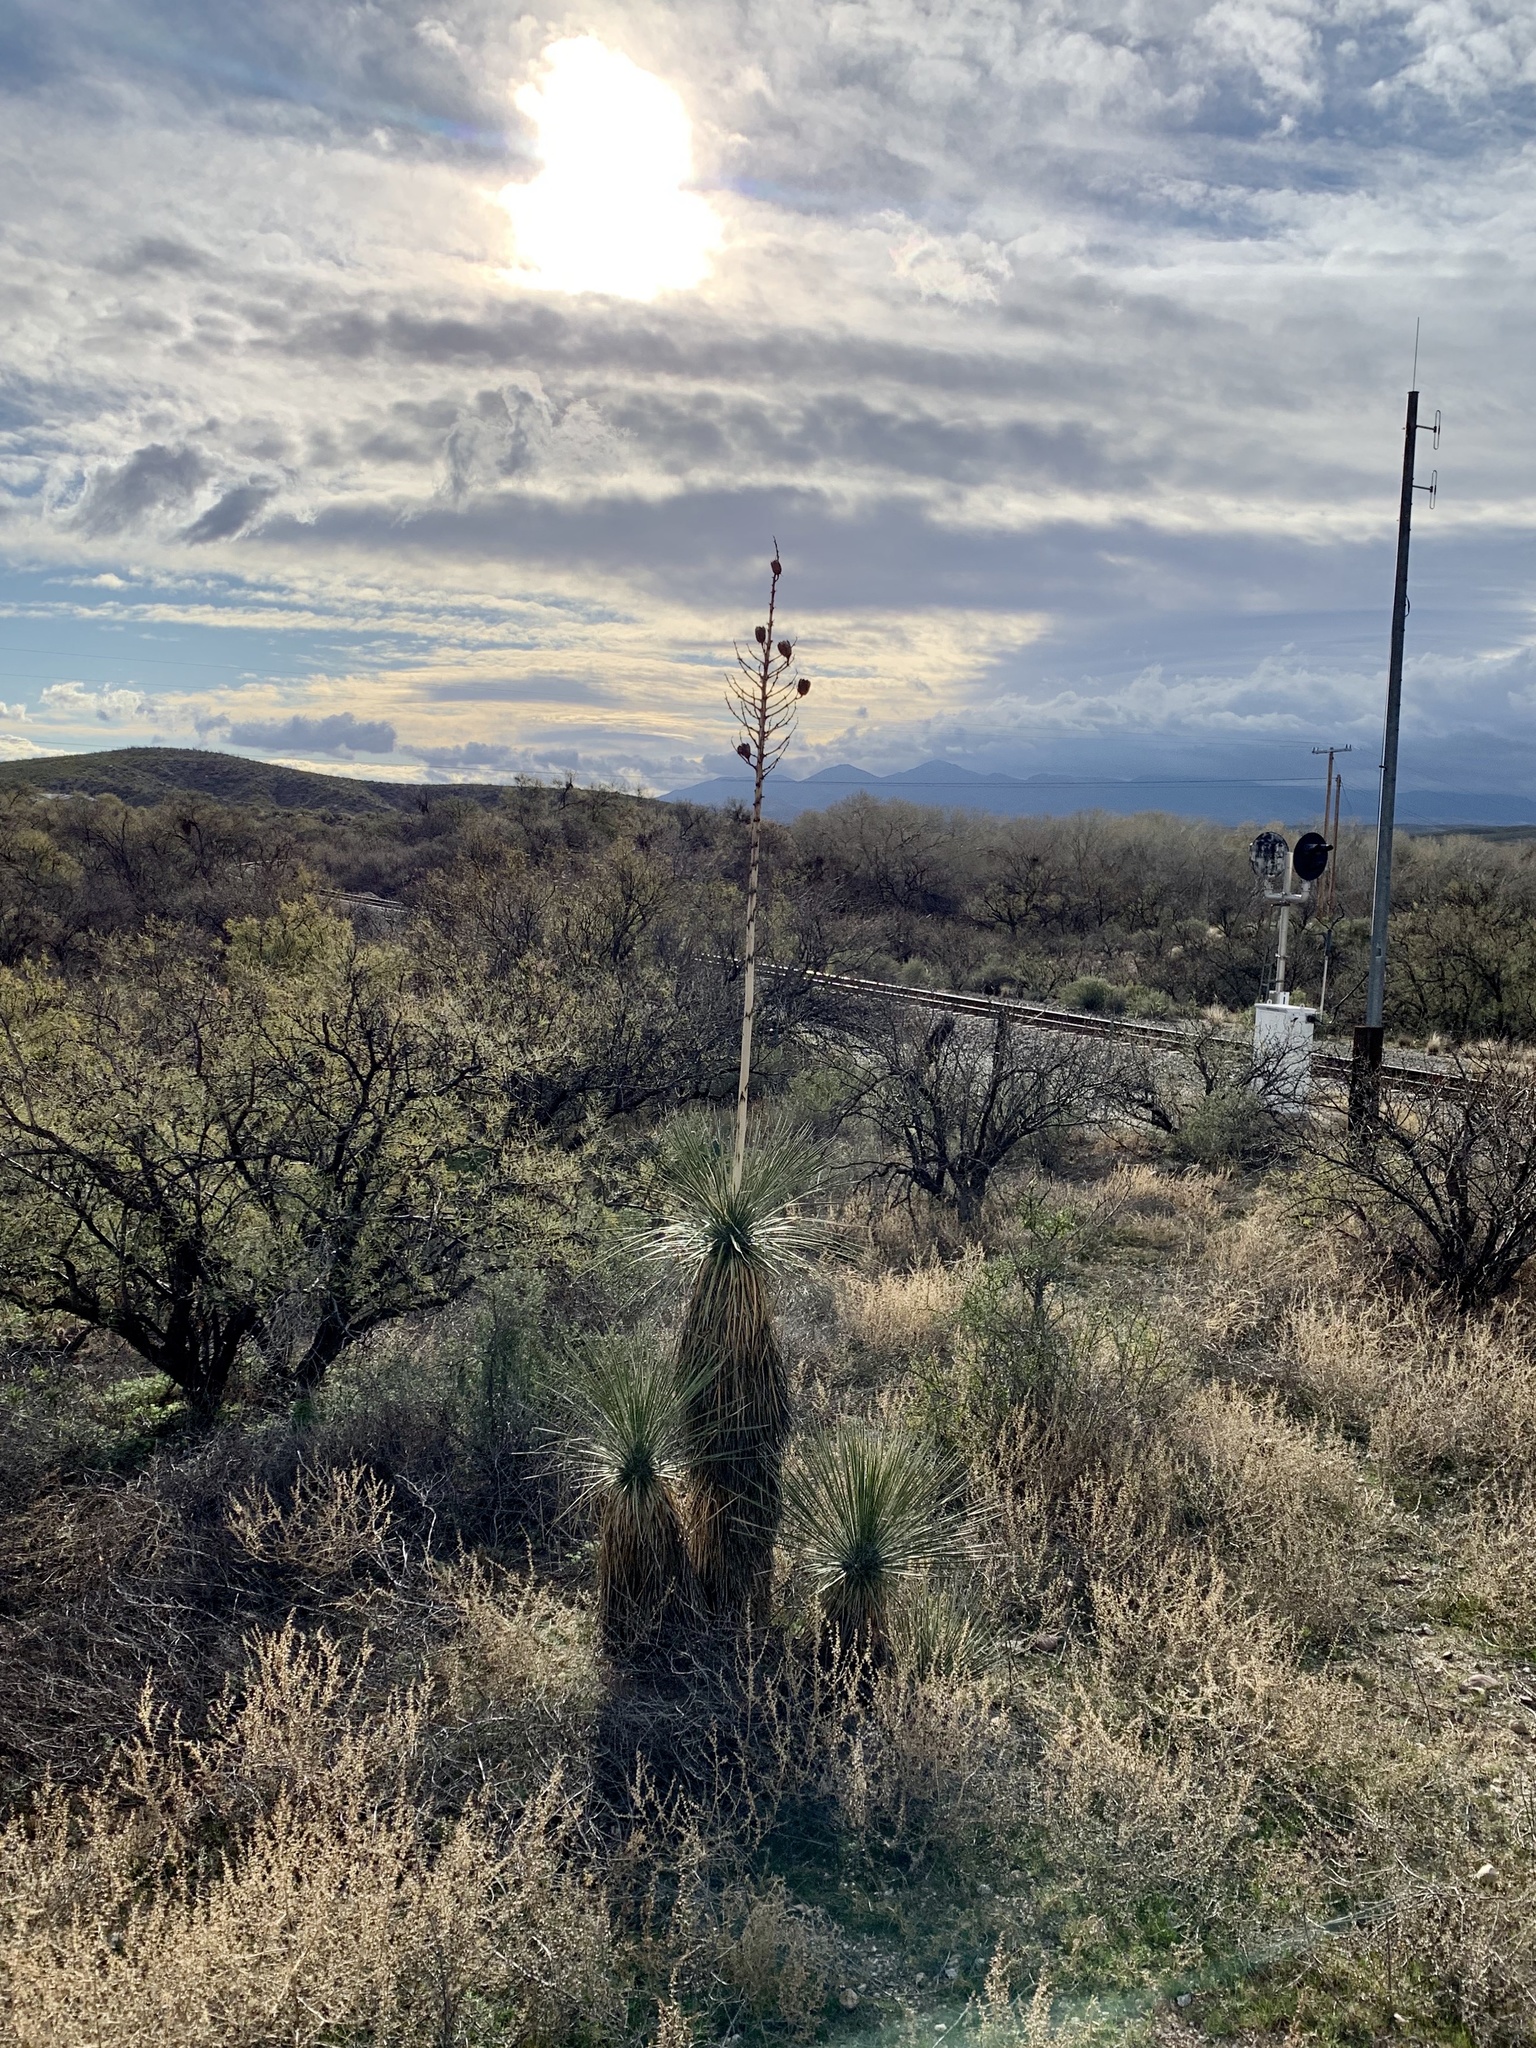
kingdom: Plantae
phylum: Tracheophyta
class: Liliopsida
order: Asparagales
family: Asparagaceae
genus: Yucca
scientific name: Yucca elata
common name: Palmella
